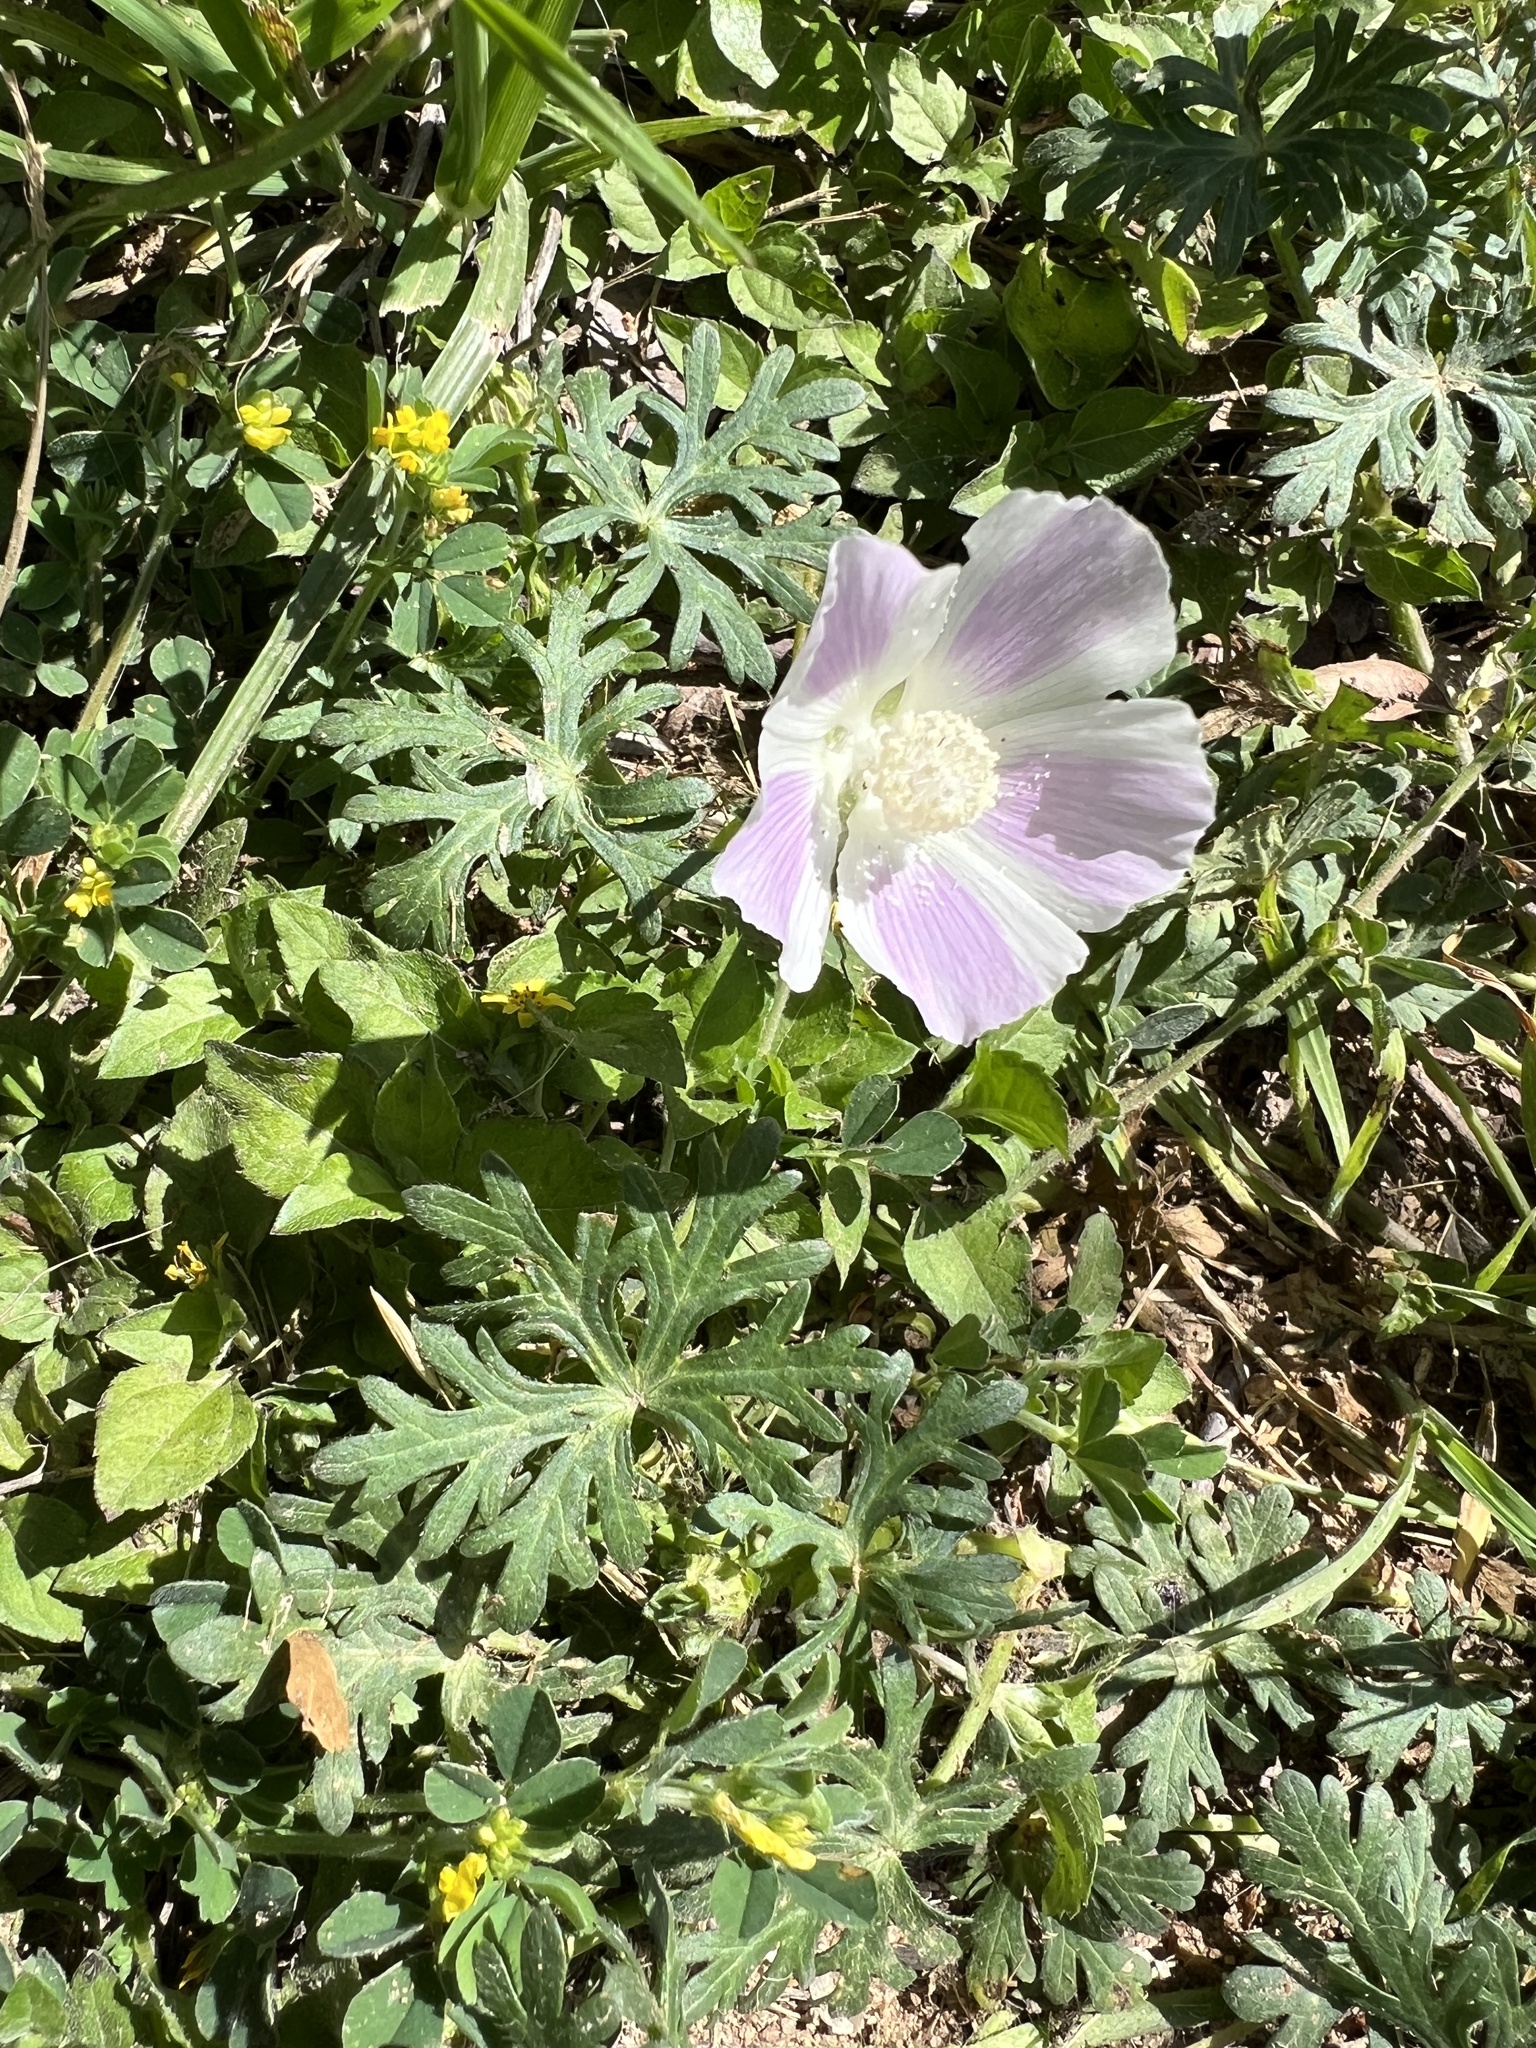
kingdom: Plantae
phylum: Tracheophyta
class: Magnoliopsida
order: Malvales
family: Malvaceae
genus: Callirhoe
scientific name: Callirhoe involucrata
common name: Purple poppy-mallow
